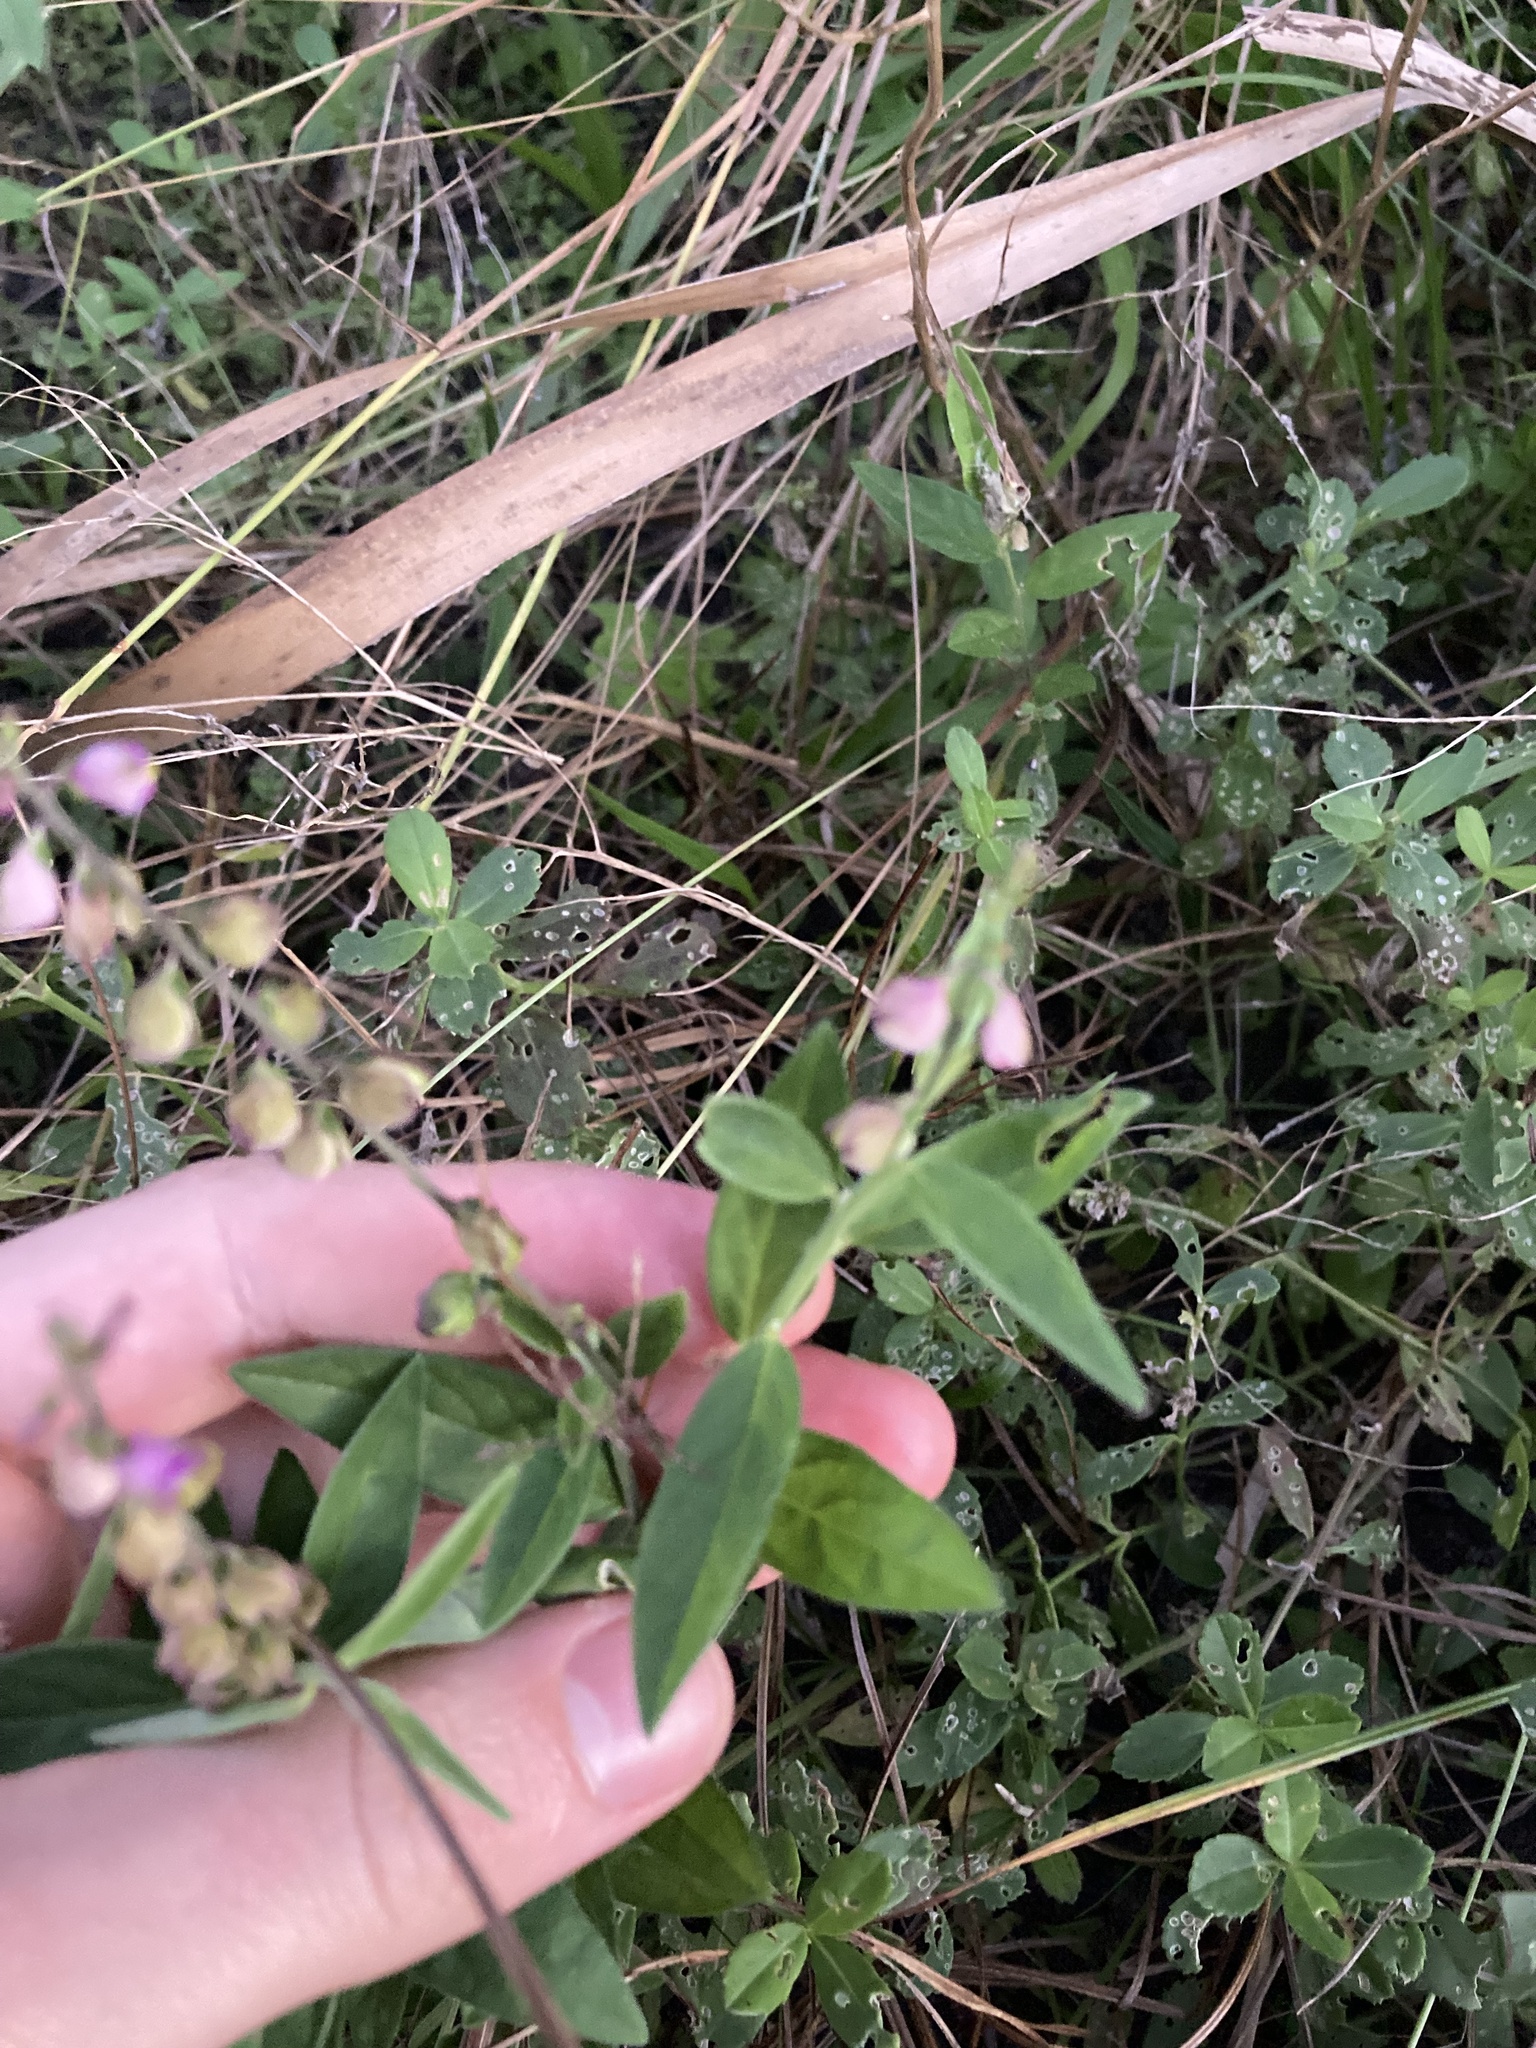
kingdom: Plantae
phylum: Tracheophyta
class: Magnoliopsida
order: Fabales
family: Polygalaceae
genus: Asemeia
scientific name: Asemeia grandiflora
